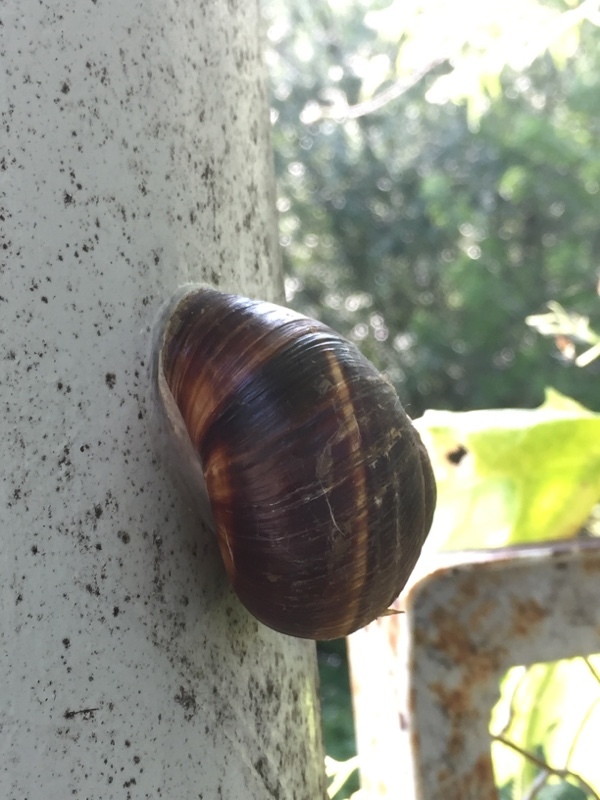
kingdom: Animalia
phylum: Mollusca
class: Gastropoda
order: Stylommatophora
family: Helicidae
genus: Helix
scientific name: Helix lucorum
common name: Turkish snail
